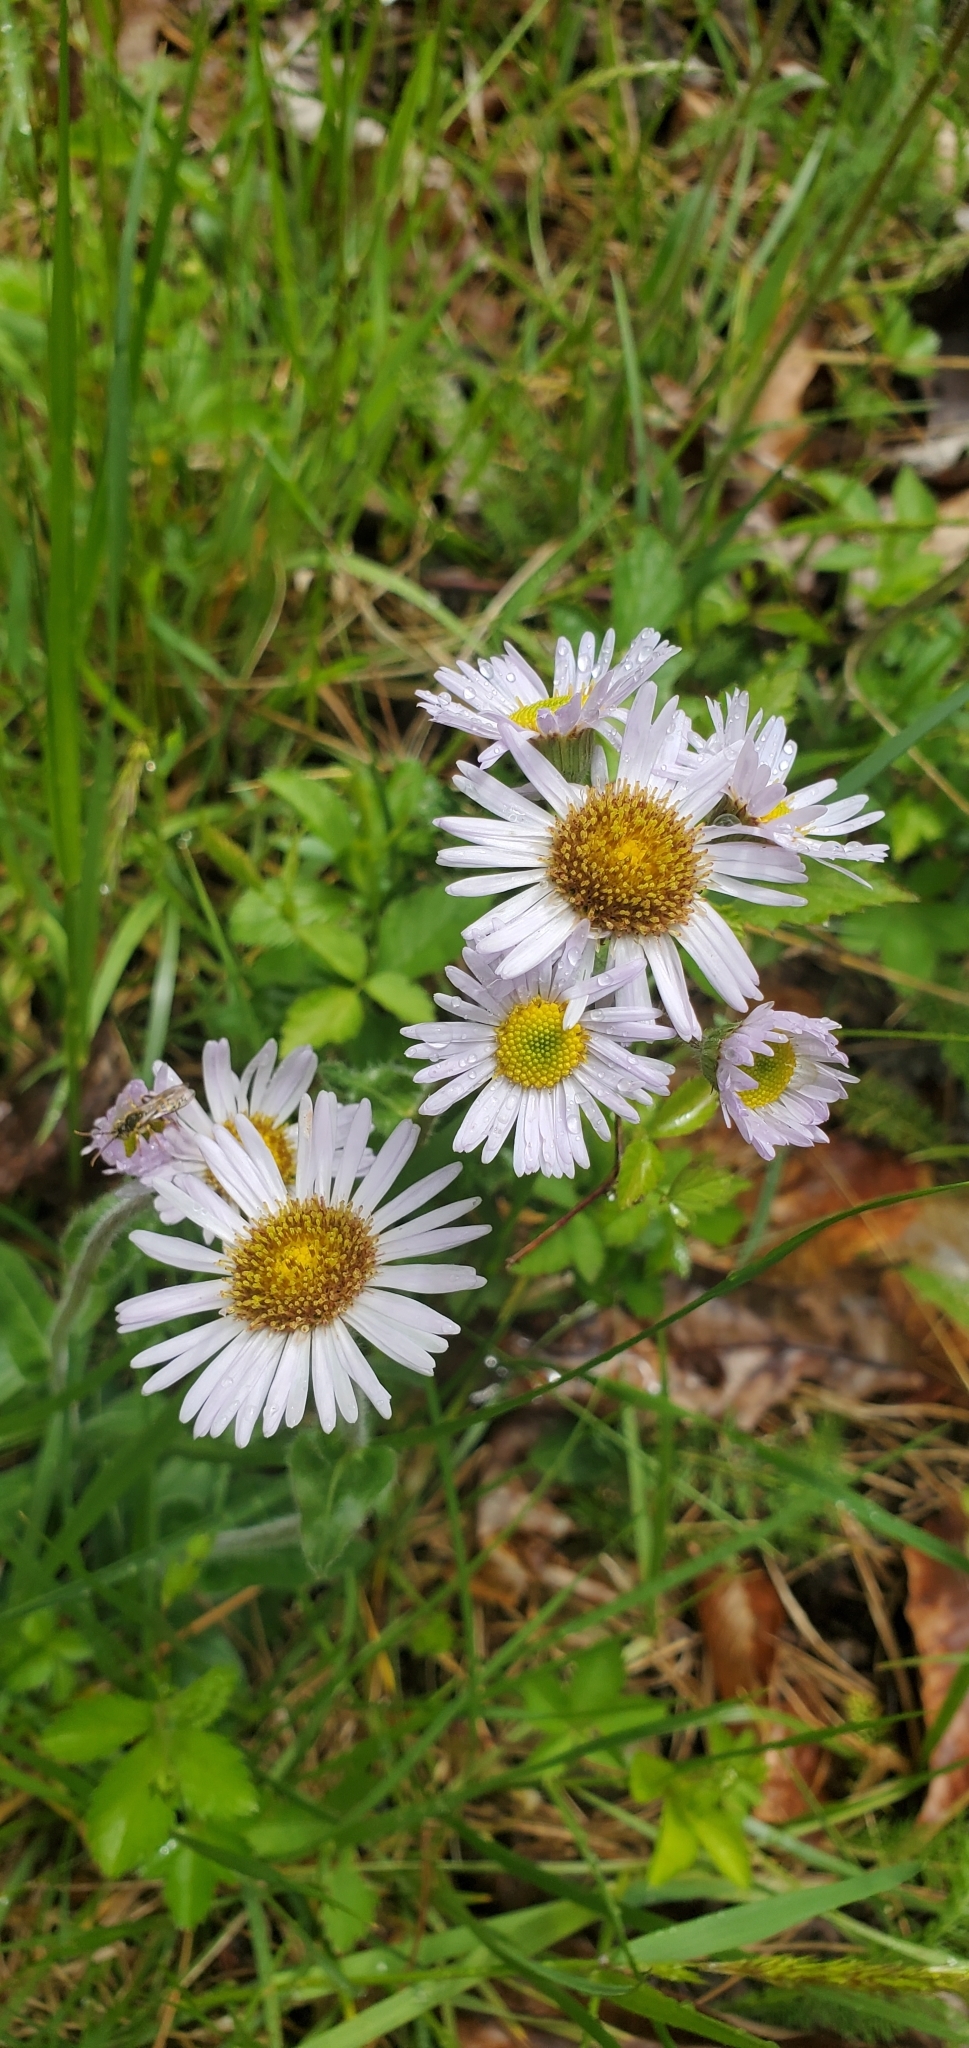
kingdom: Plantae
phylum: Tracheophyta
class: Magnoliopsida
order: Asterales
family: Asteraceae
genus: Erigeron
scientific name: Erigeron pulchellus
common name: Hairy fleabane
